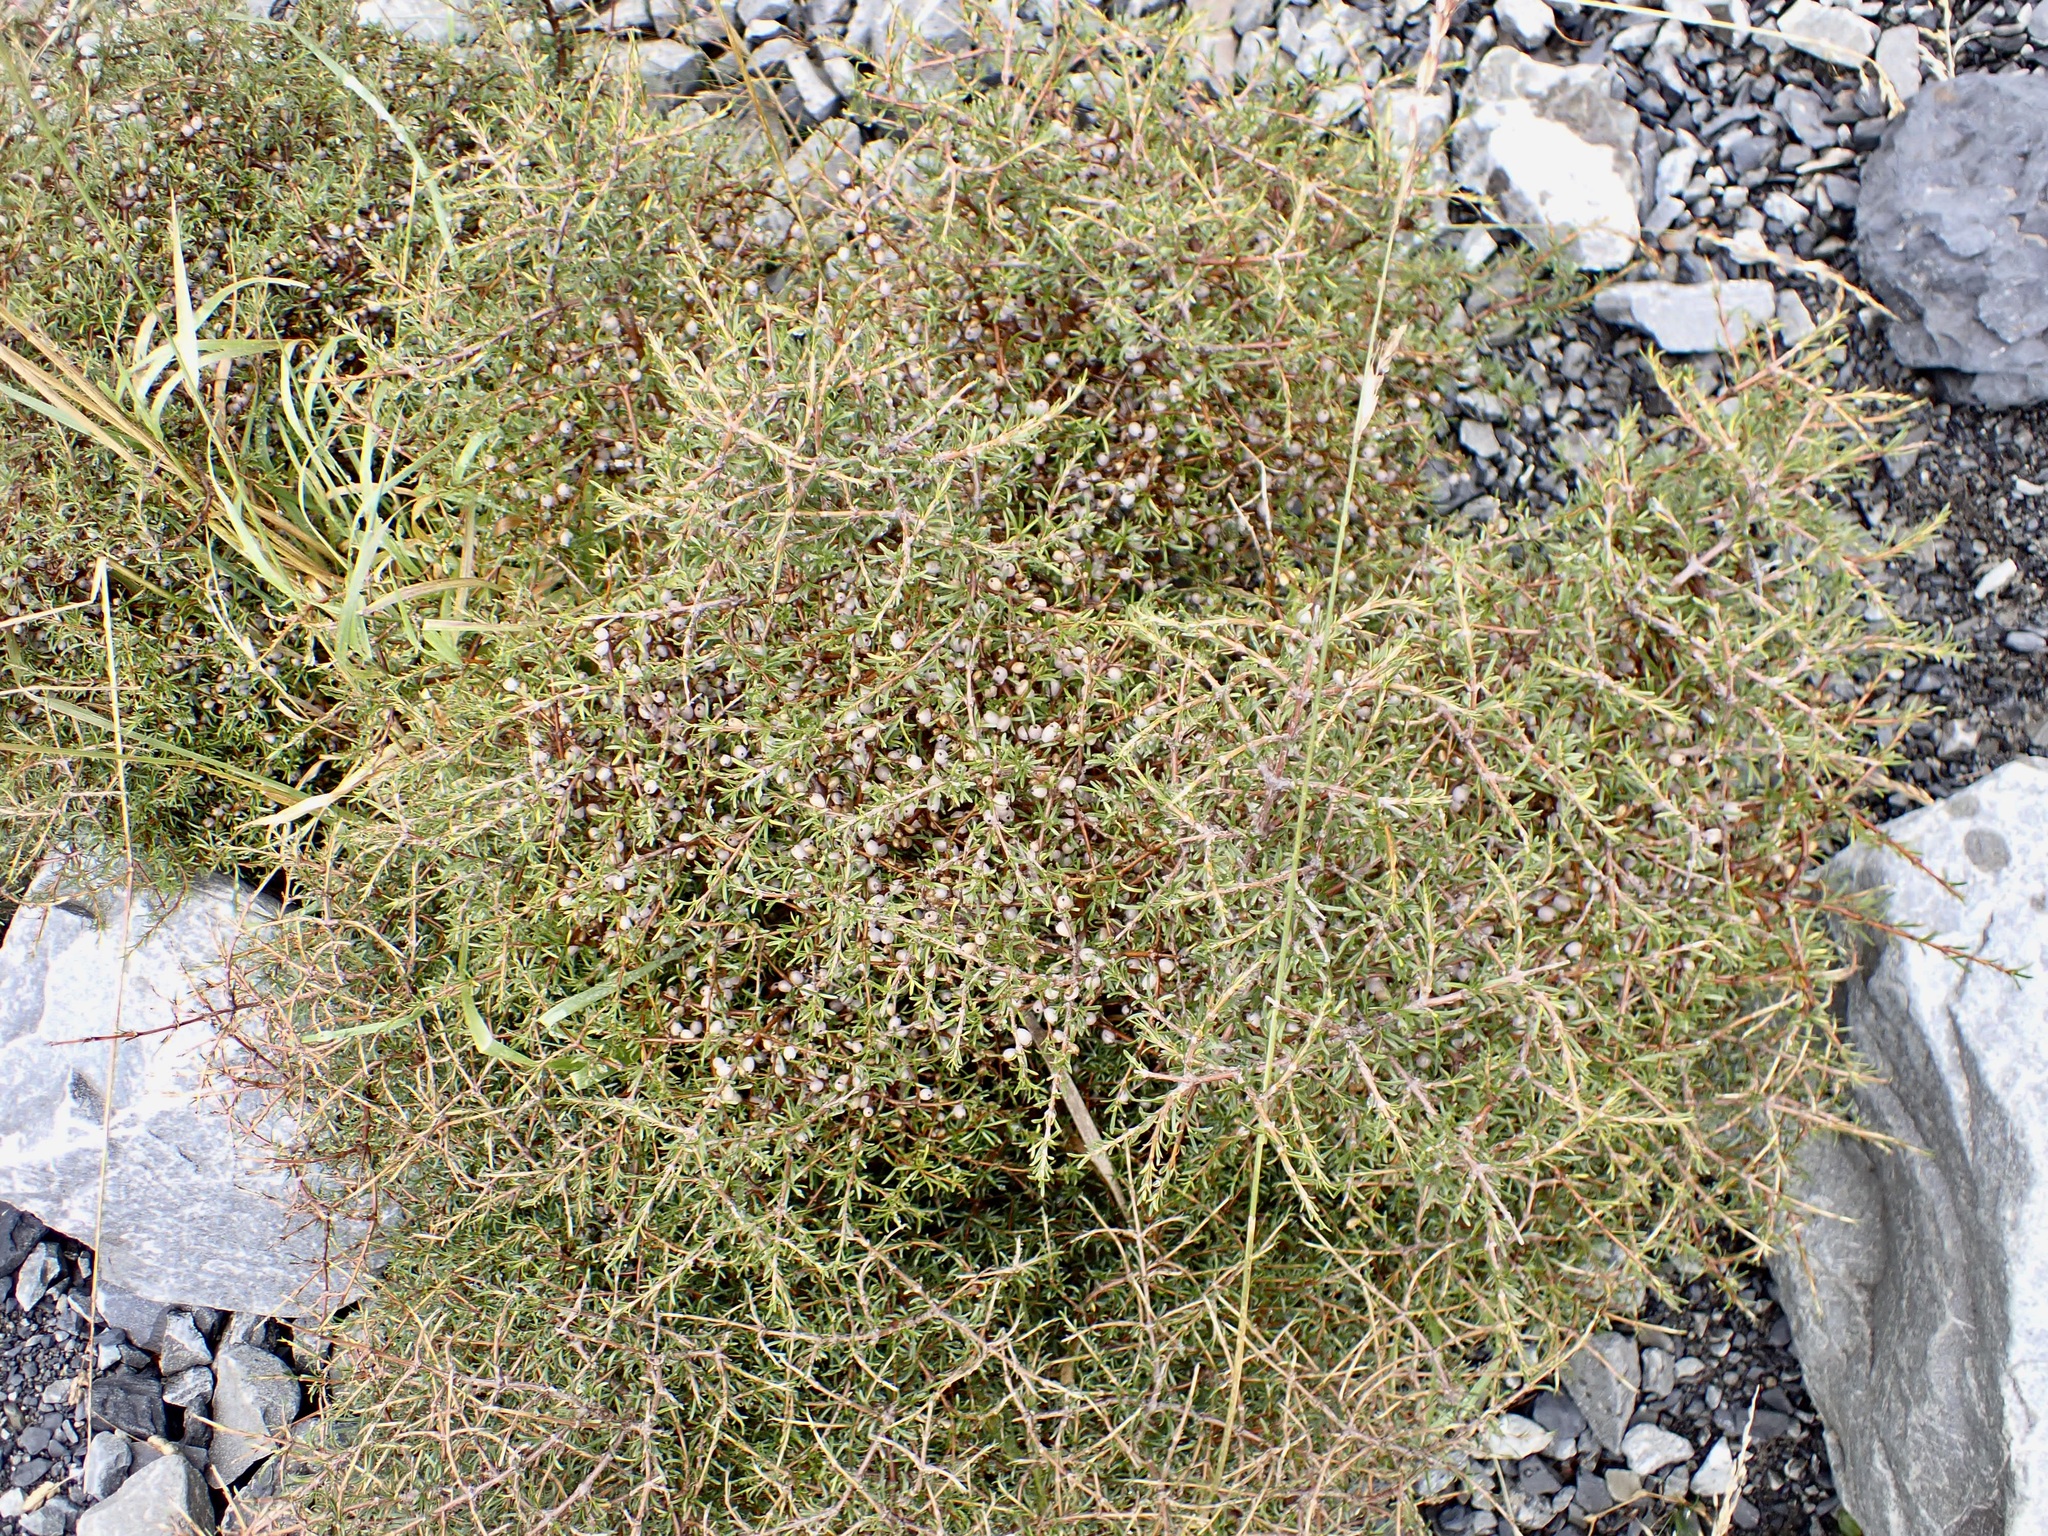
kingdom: Plantae
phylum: Tracheophyta
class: Magnoliopsida
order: Gentianales
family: Rubiaceae
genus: Coprosma
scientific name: Coprosma rugosa
